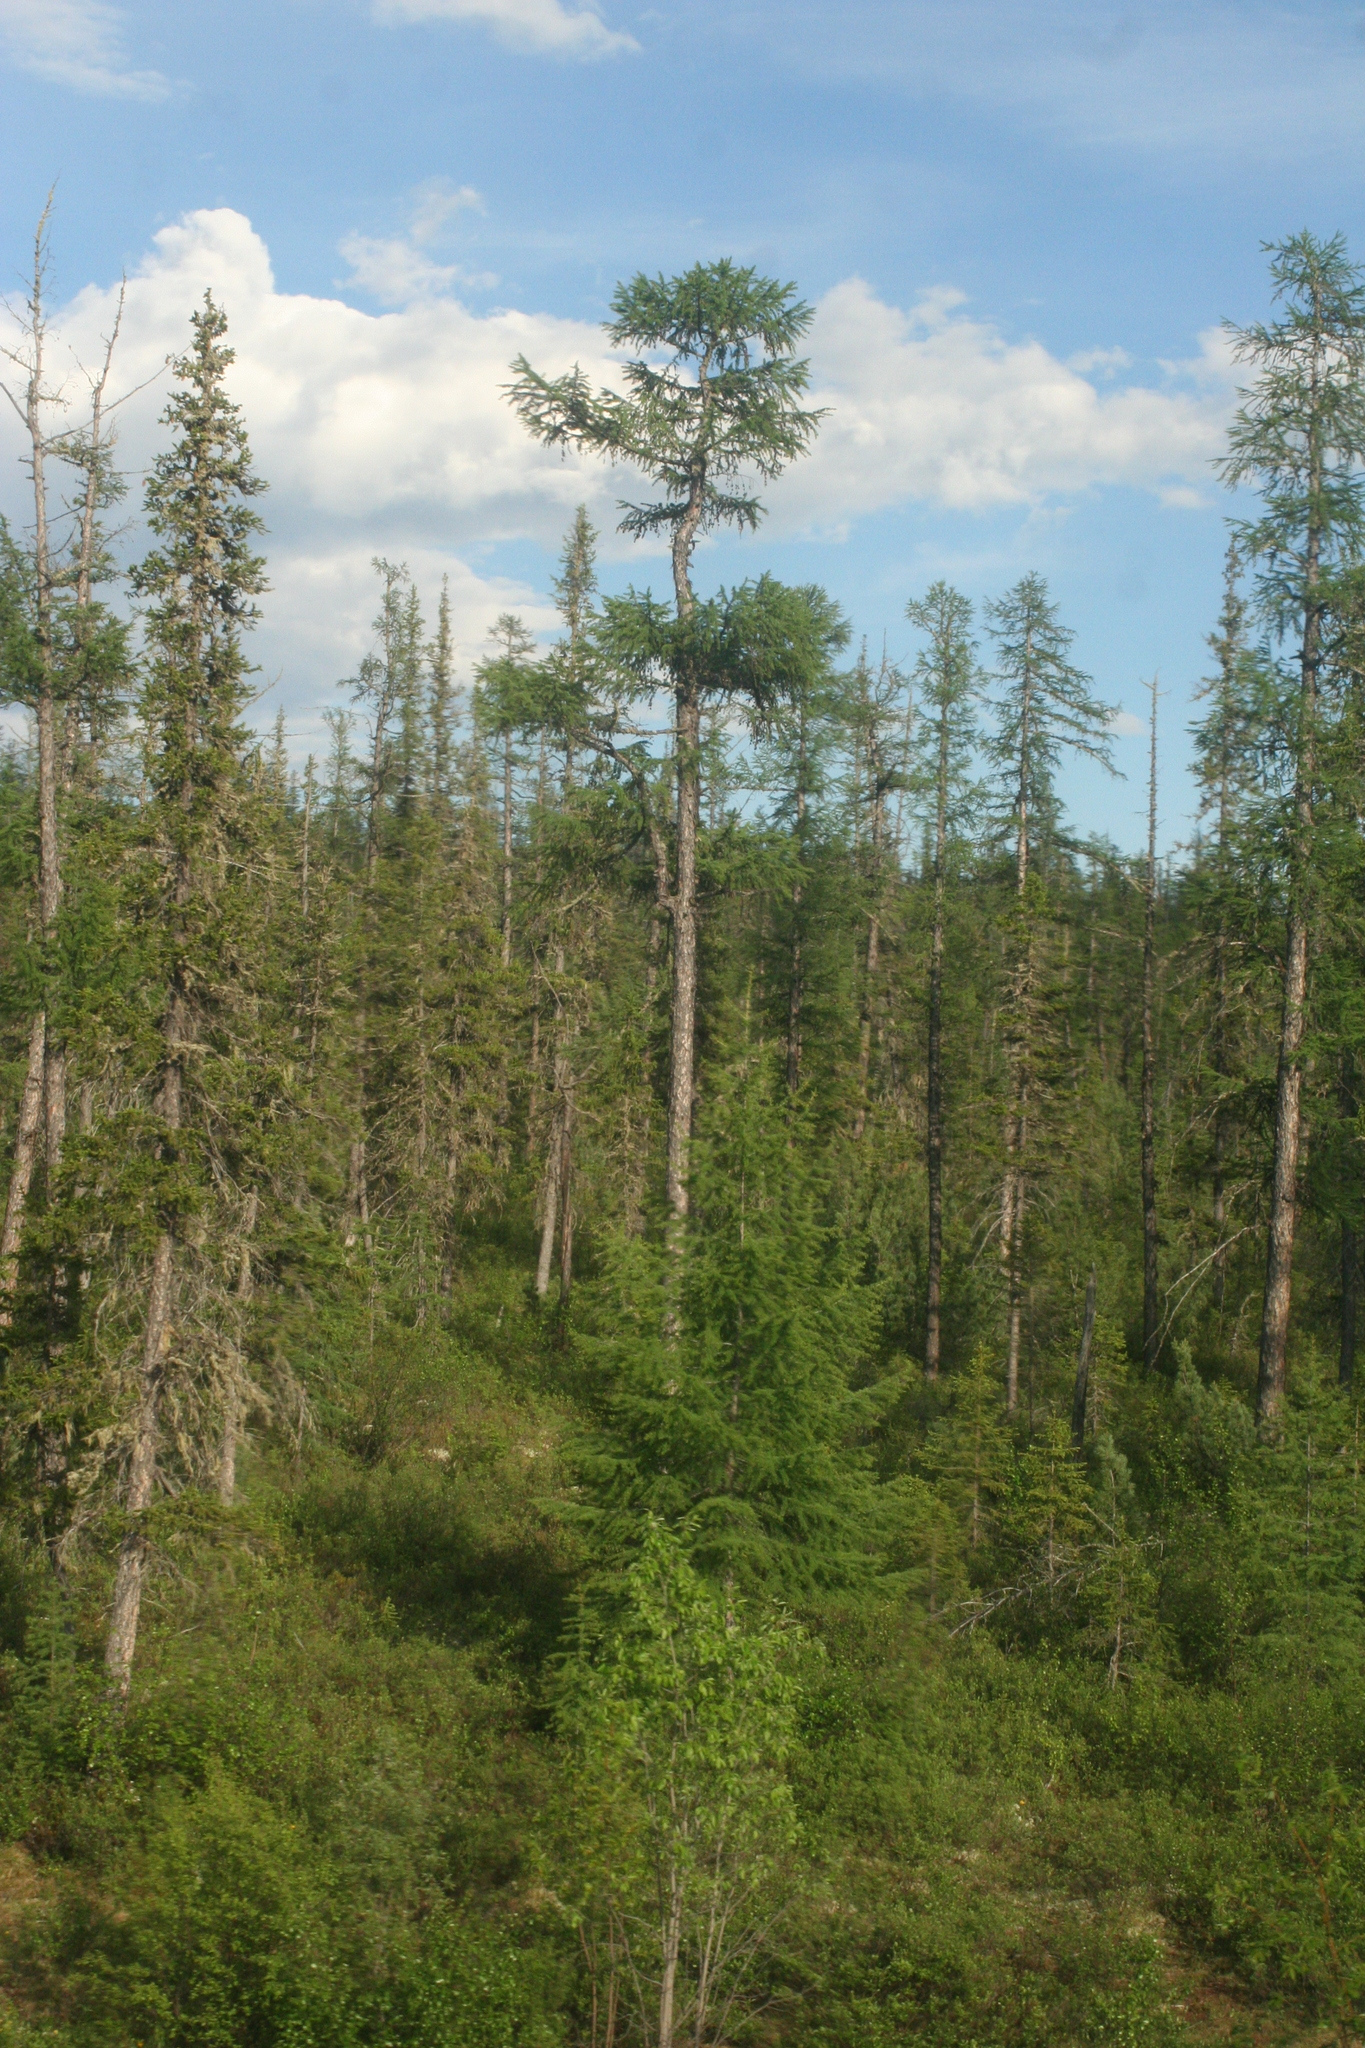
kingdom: Plantae
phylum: Tracheophyta
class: Pinopsida
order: Pinales
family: Pinaceae
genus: Larix
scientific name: Larix gmelinii
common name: Dahurian larch
